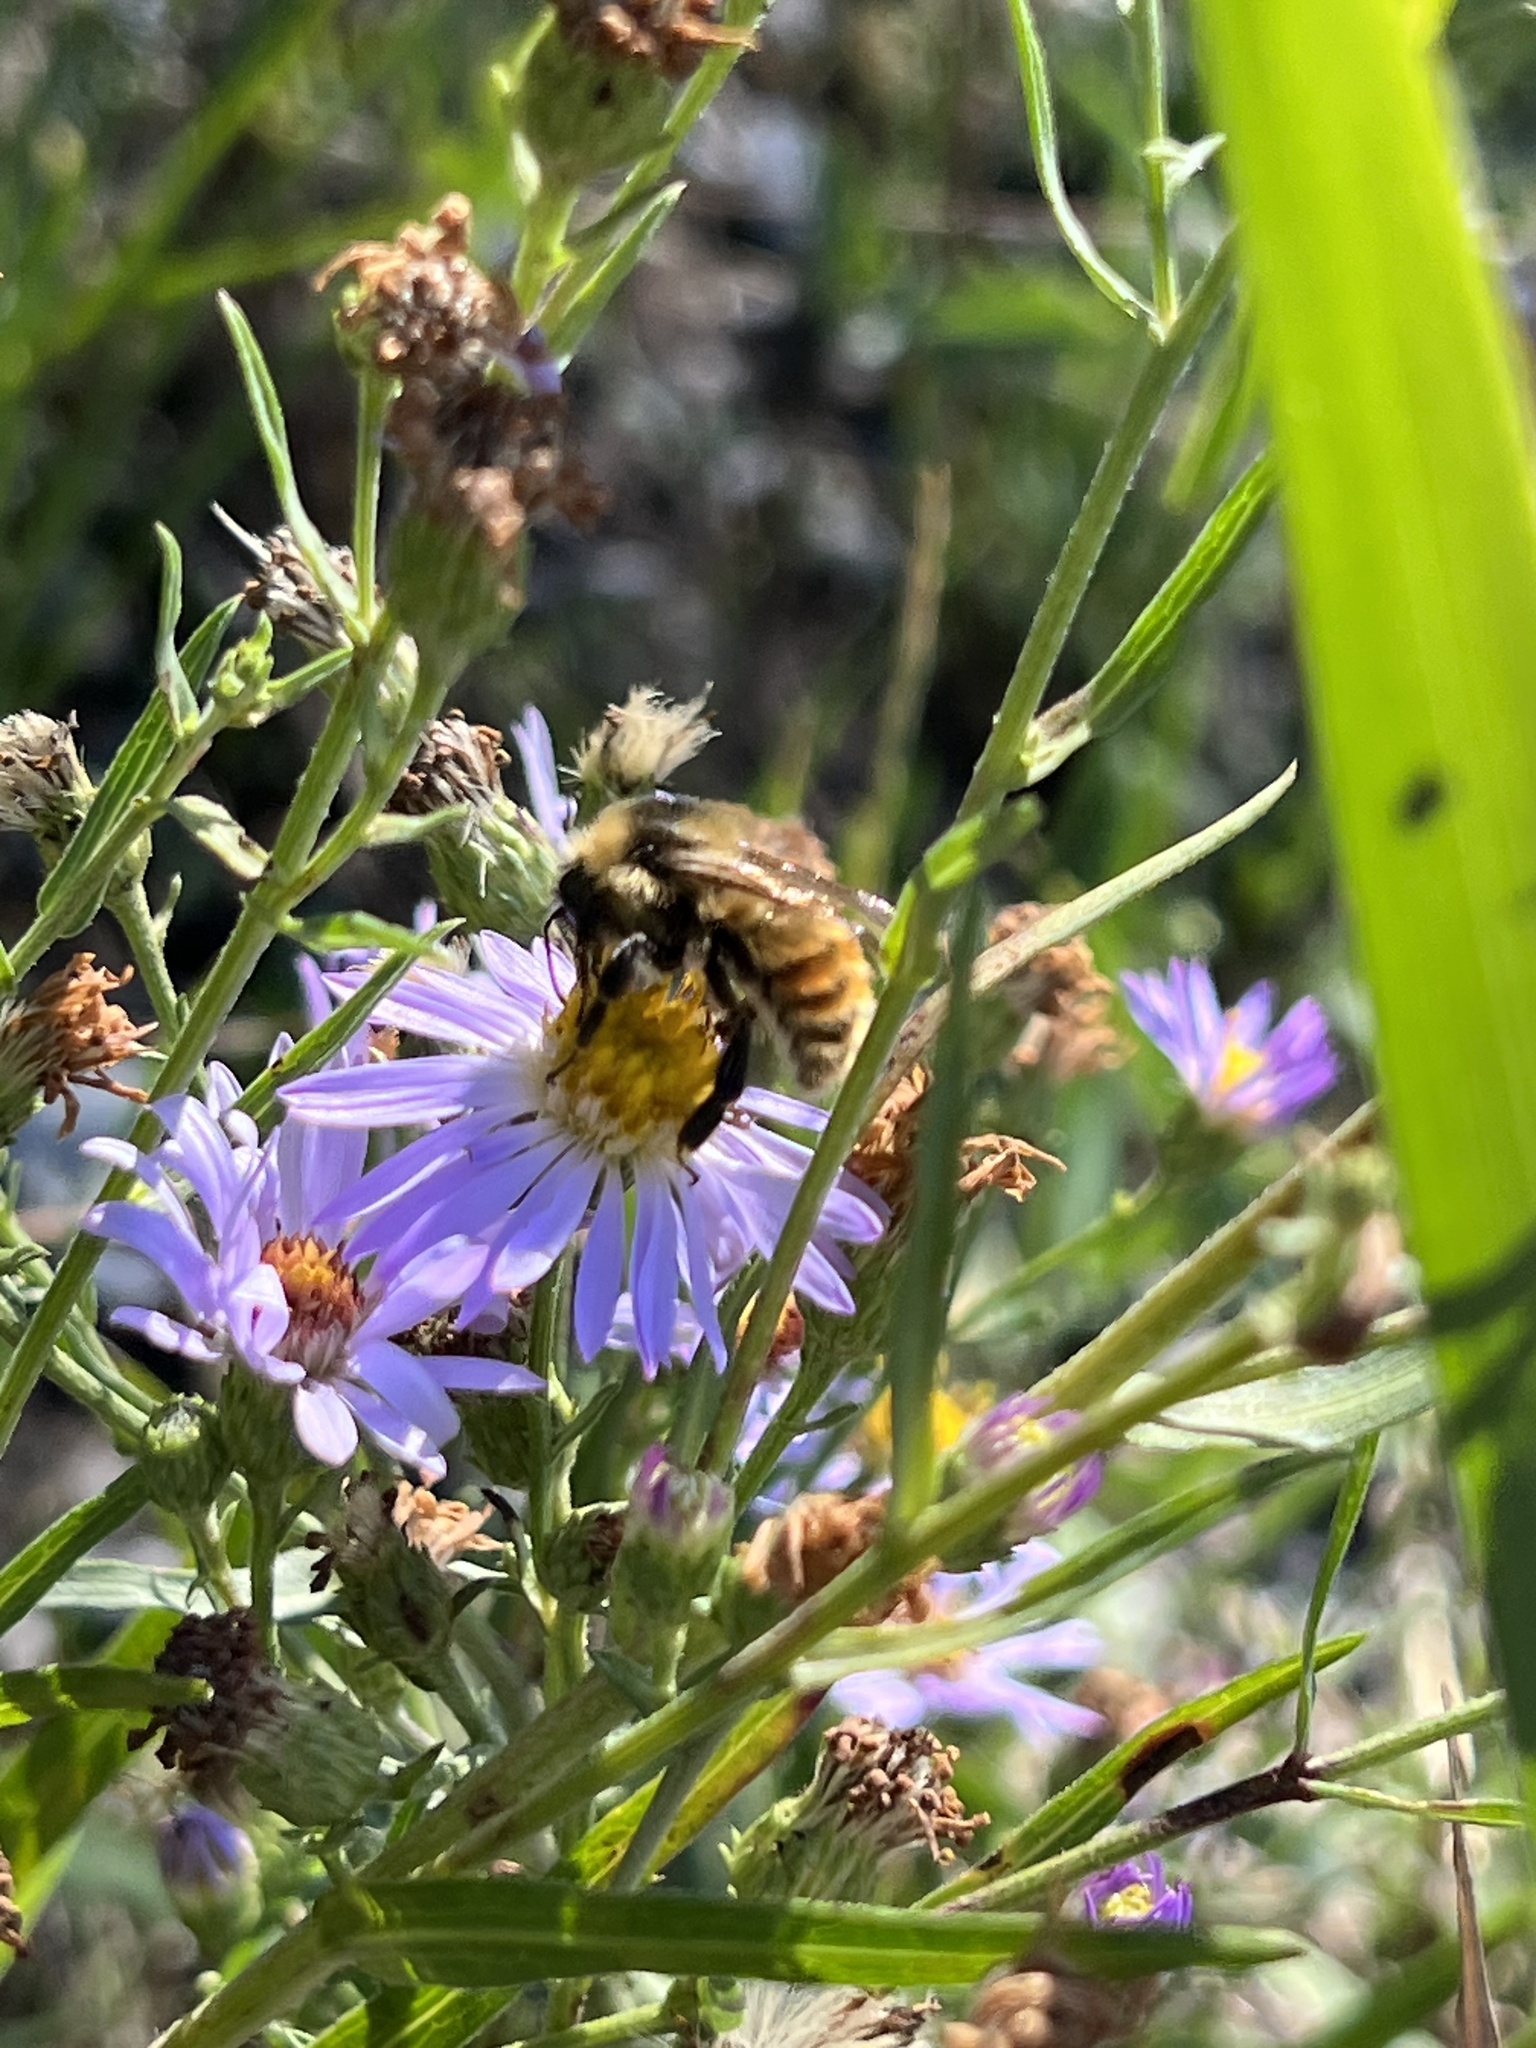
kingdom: Animalia
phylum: Arthropoda
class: Insecta
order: Hymenoptera
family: Apidae
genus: Bombus
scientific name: Bombus rufocinctus
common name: Red-belted bumble bee
